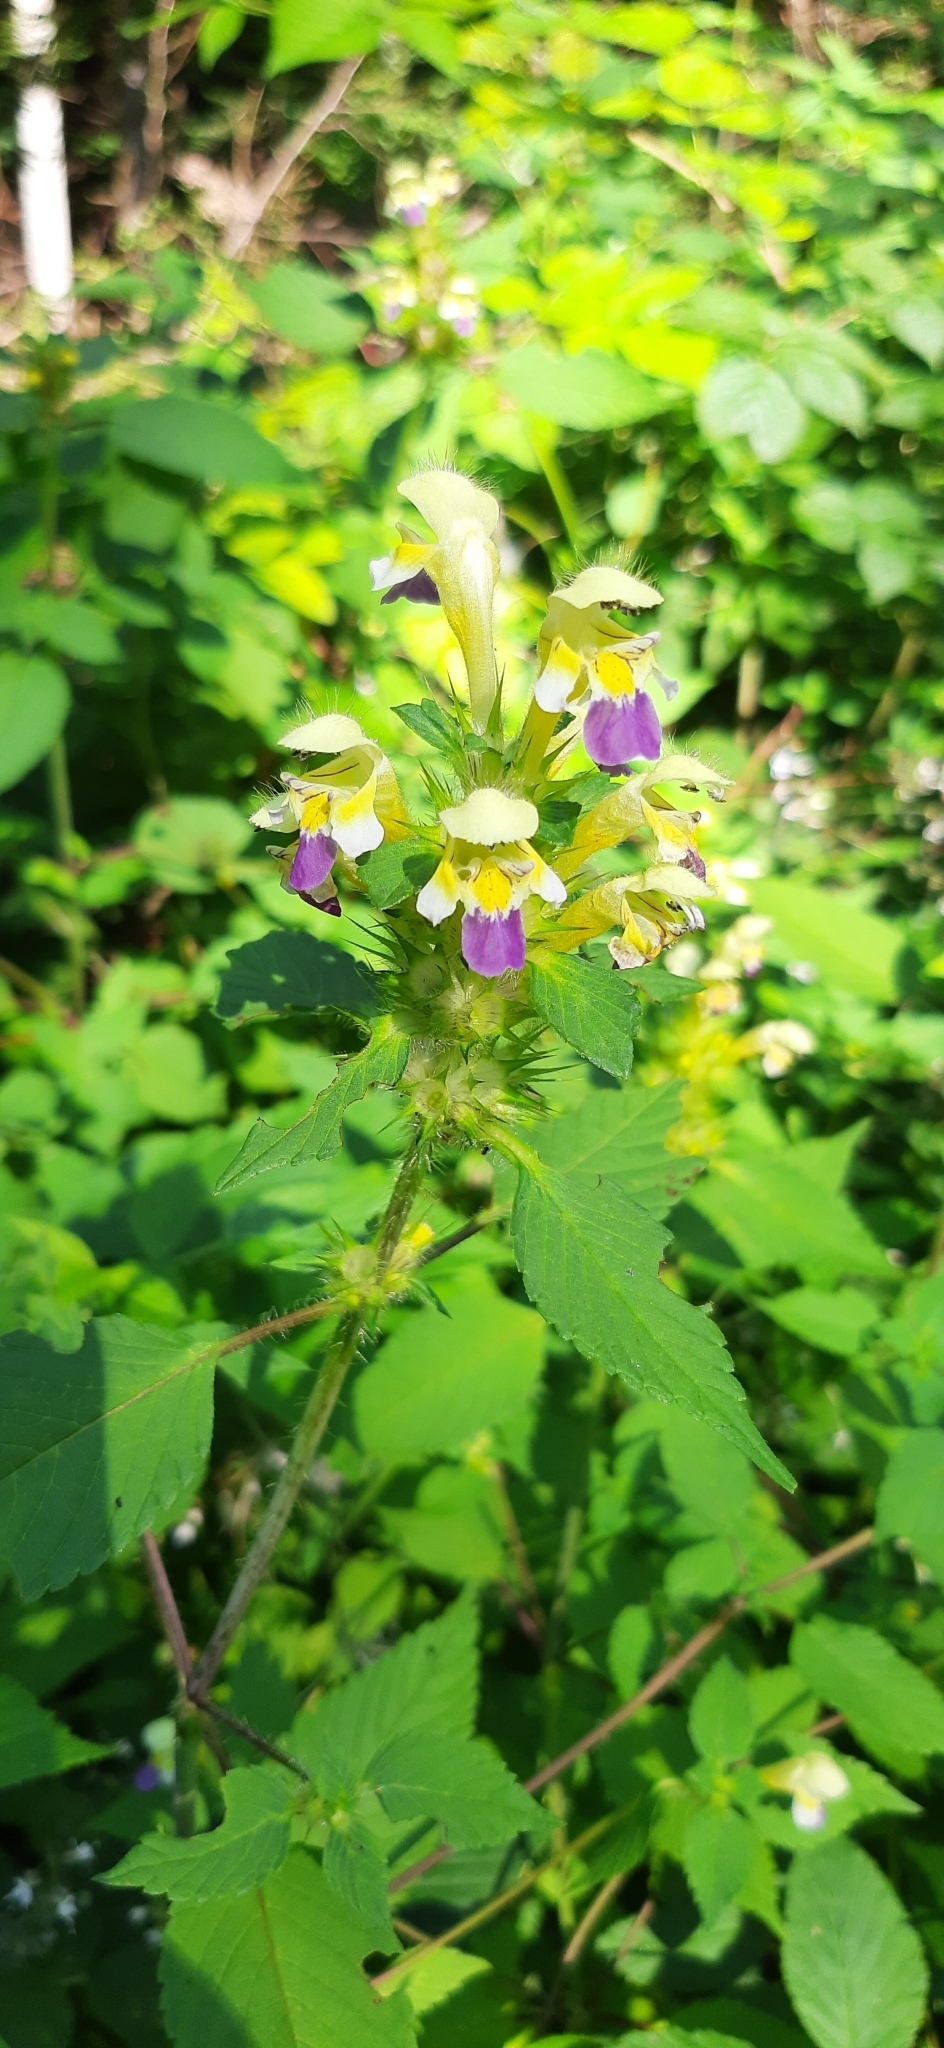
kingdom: Plantae
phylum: Tracheophyta
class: Magnoliopsida
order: Lamiales
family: Lamiaceae
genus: Galeopsis
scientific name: Galeopsis speciosa
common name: Large-flowered hemp-nettle
